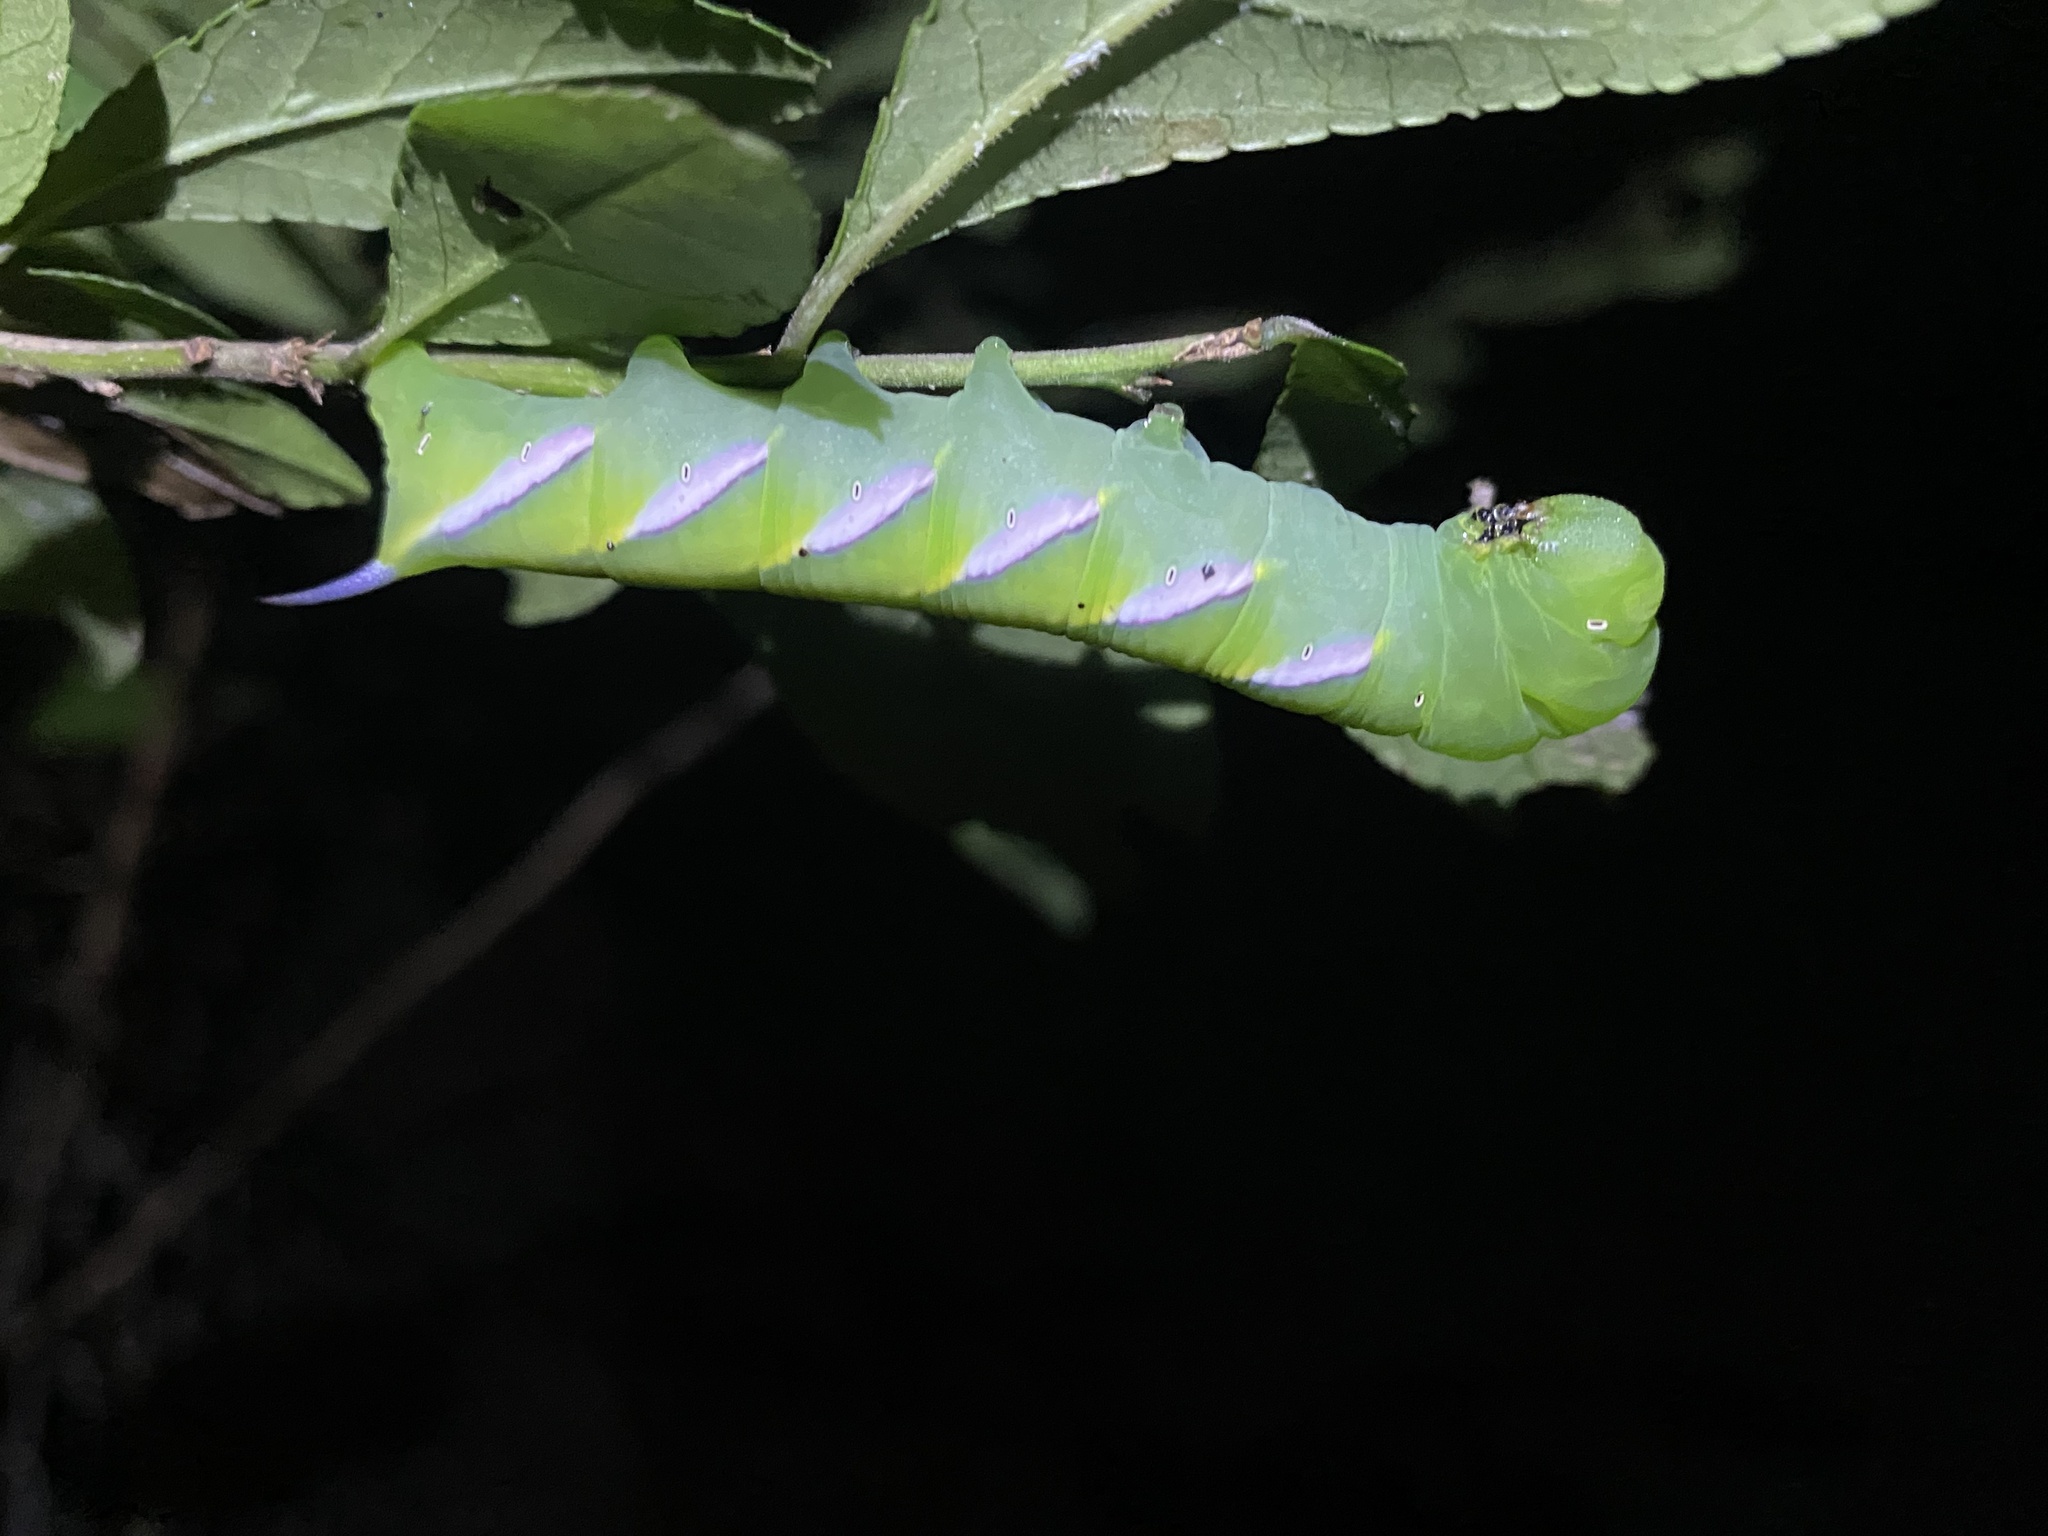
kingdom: Animalia
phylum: Arthropoda
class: Insecta
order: Lepidoptera
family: Sphingidae
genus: Dolba
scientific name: Dolba hyloeus
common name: Pawpaw sphinx
